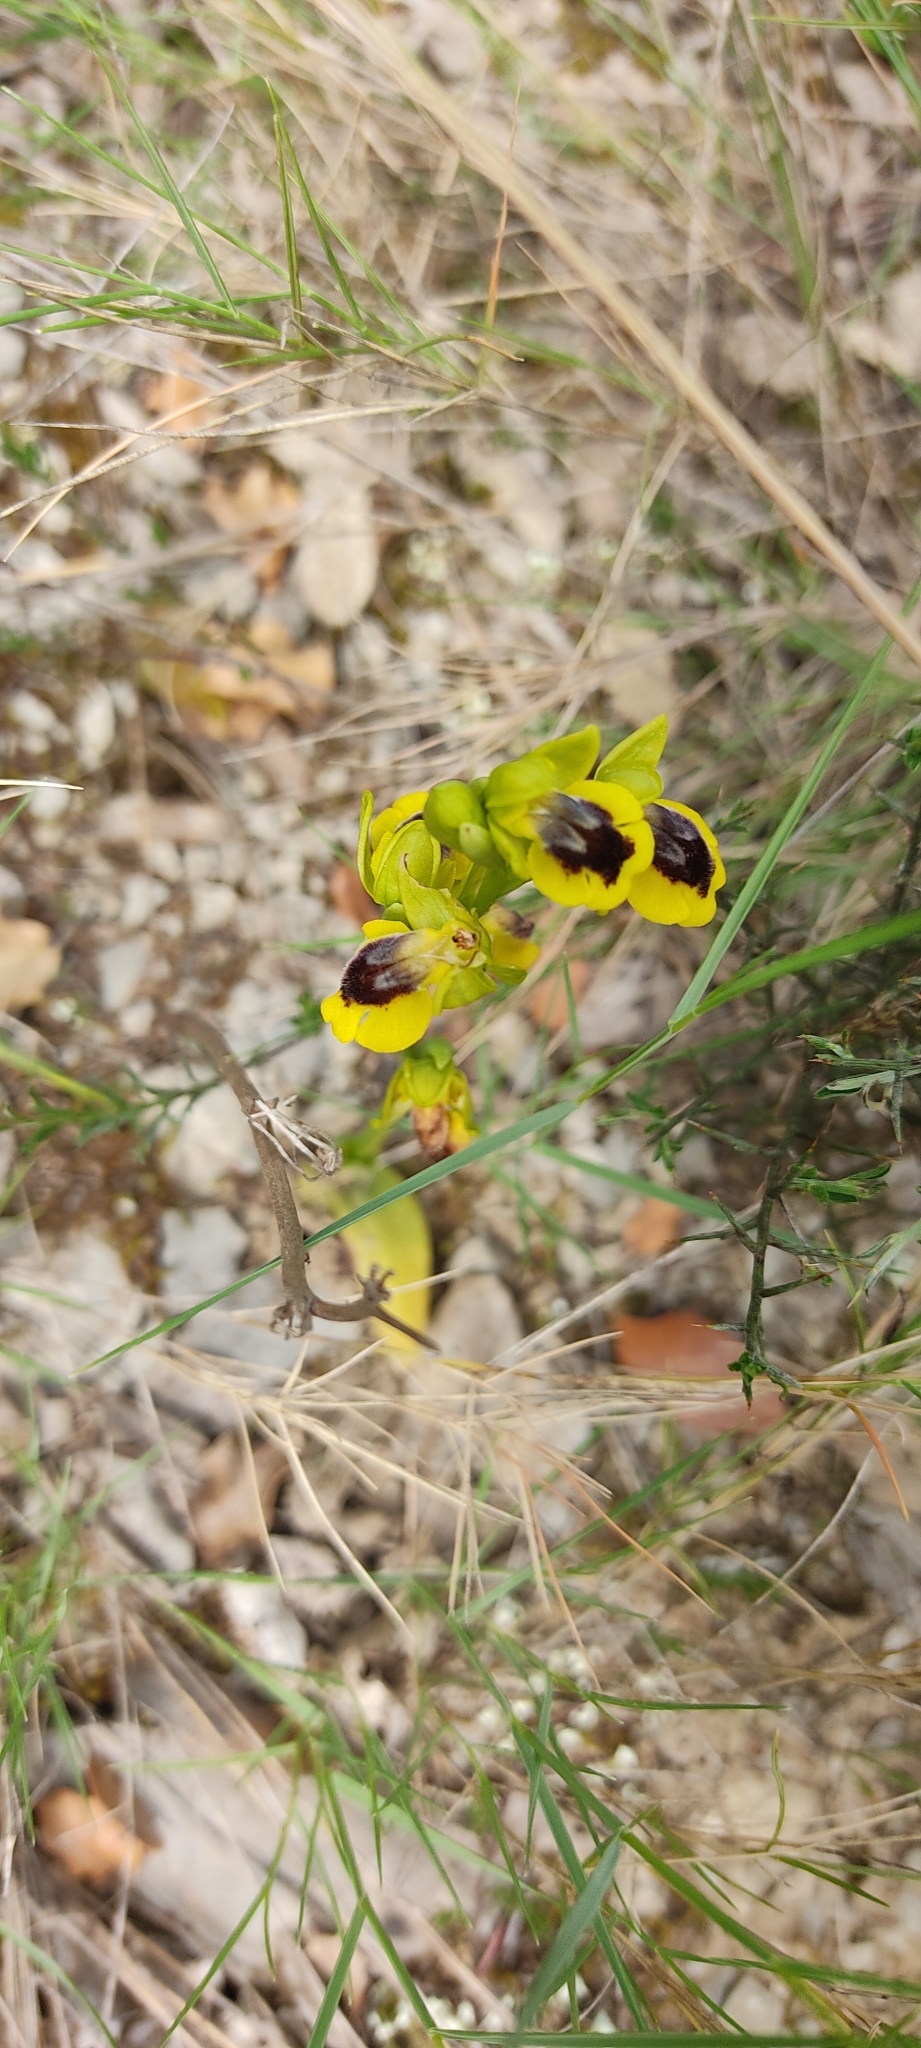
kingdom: Plantae
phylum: Tracheophyta
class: Liliopsida
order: Asparagales
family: Orchidaceae
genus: Ophrys
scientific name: Ophrys lutea
